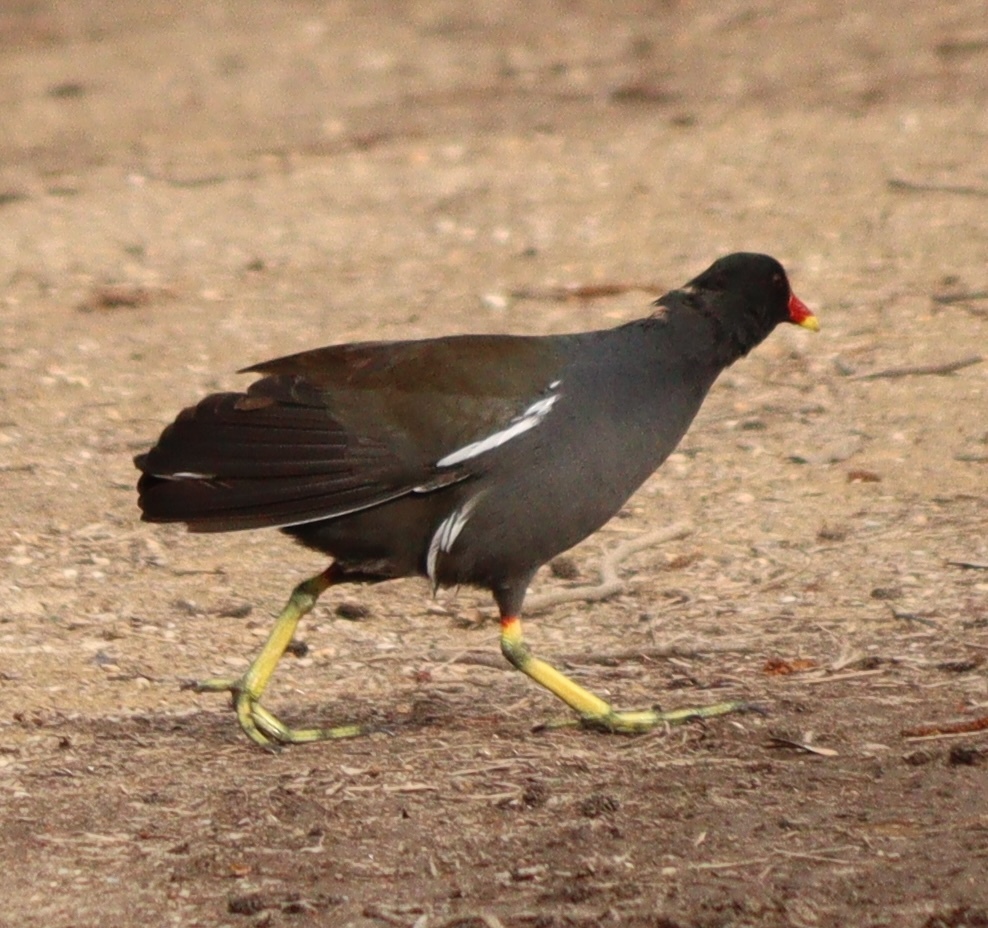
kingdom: Animalia
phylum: Chordata
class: Aves
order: Gruiformes
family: Rallidae
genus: Gallinula
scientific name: Gallinula chloropus
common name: Common moorhen
